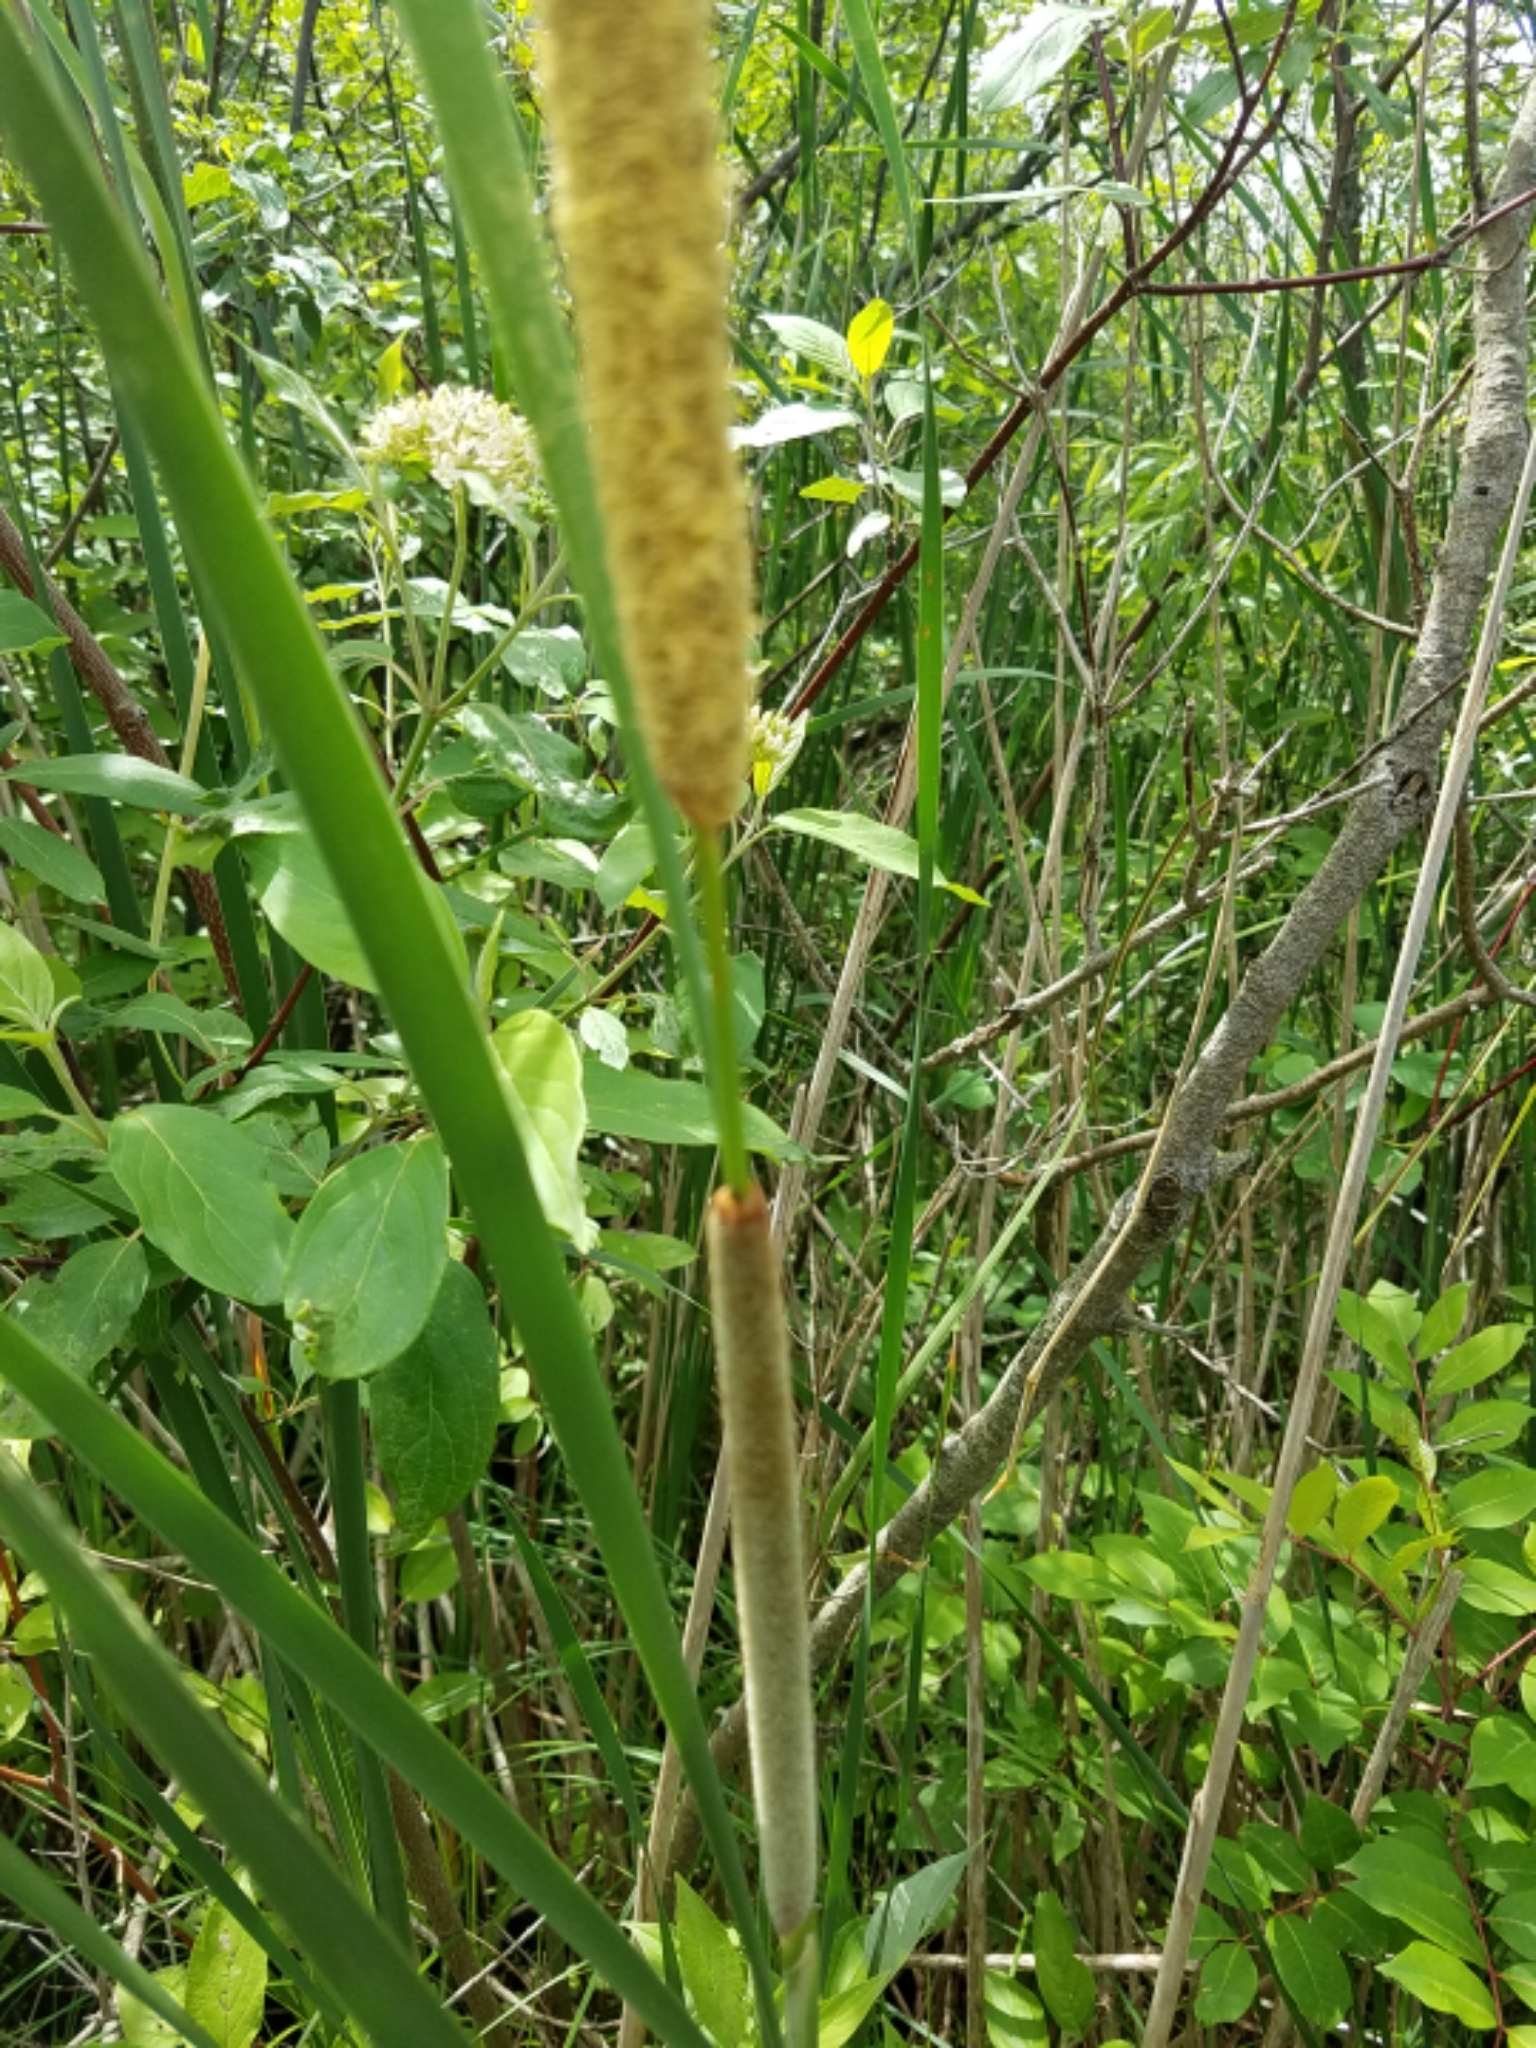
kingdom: Plantae
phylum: Tracheophyta
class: Liliopsida
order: Poales
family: Typhaceae
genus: Typha
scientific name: Typha angustifolia
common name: Lesser bulrush
